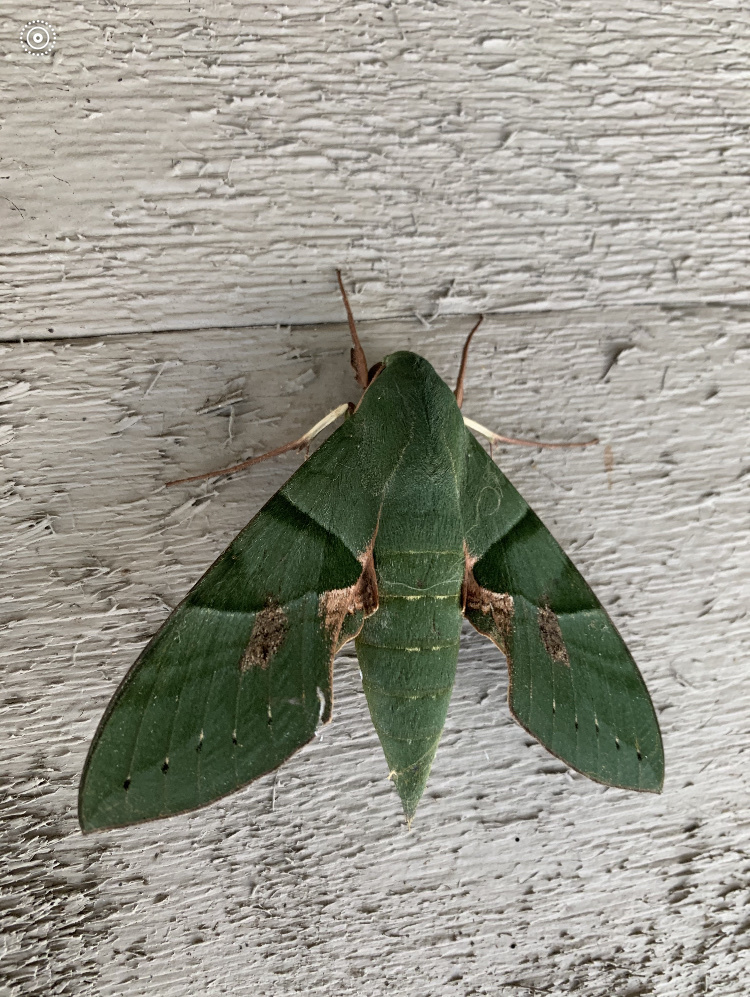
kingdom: Animalia
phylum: Arthropoda
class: Insecta
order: Lepidoptera
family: Sphingidae
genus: Eumorpha
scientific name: Eumorpha labruscae
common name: Gaudy sphinx
